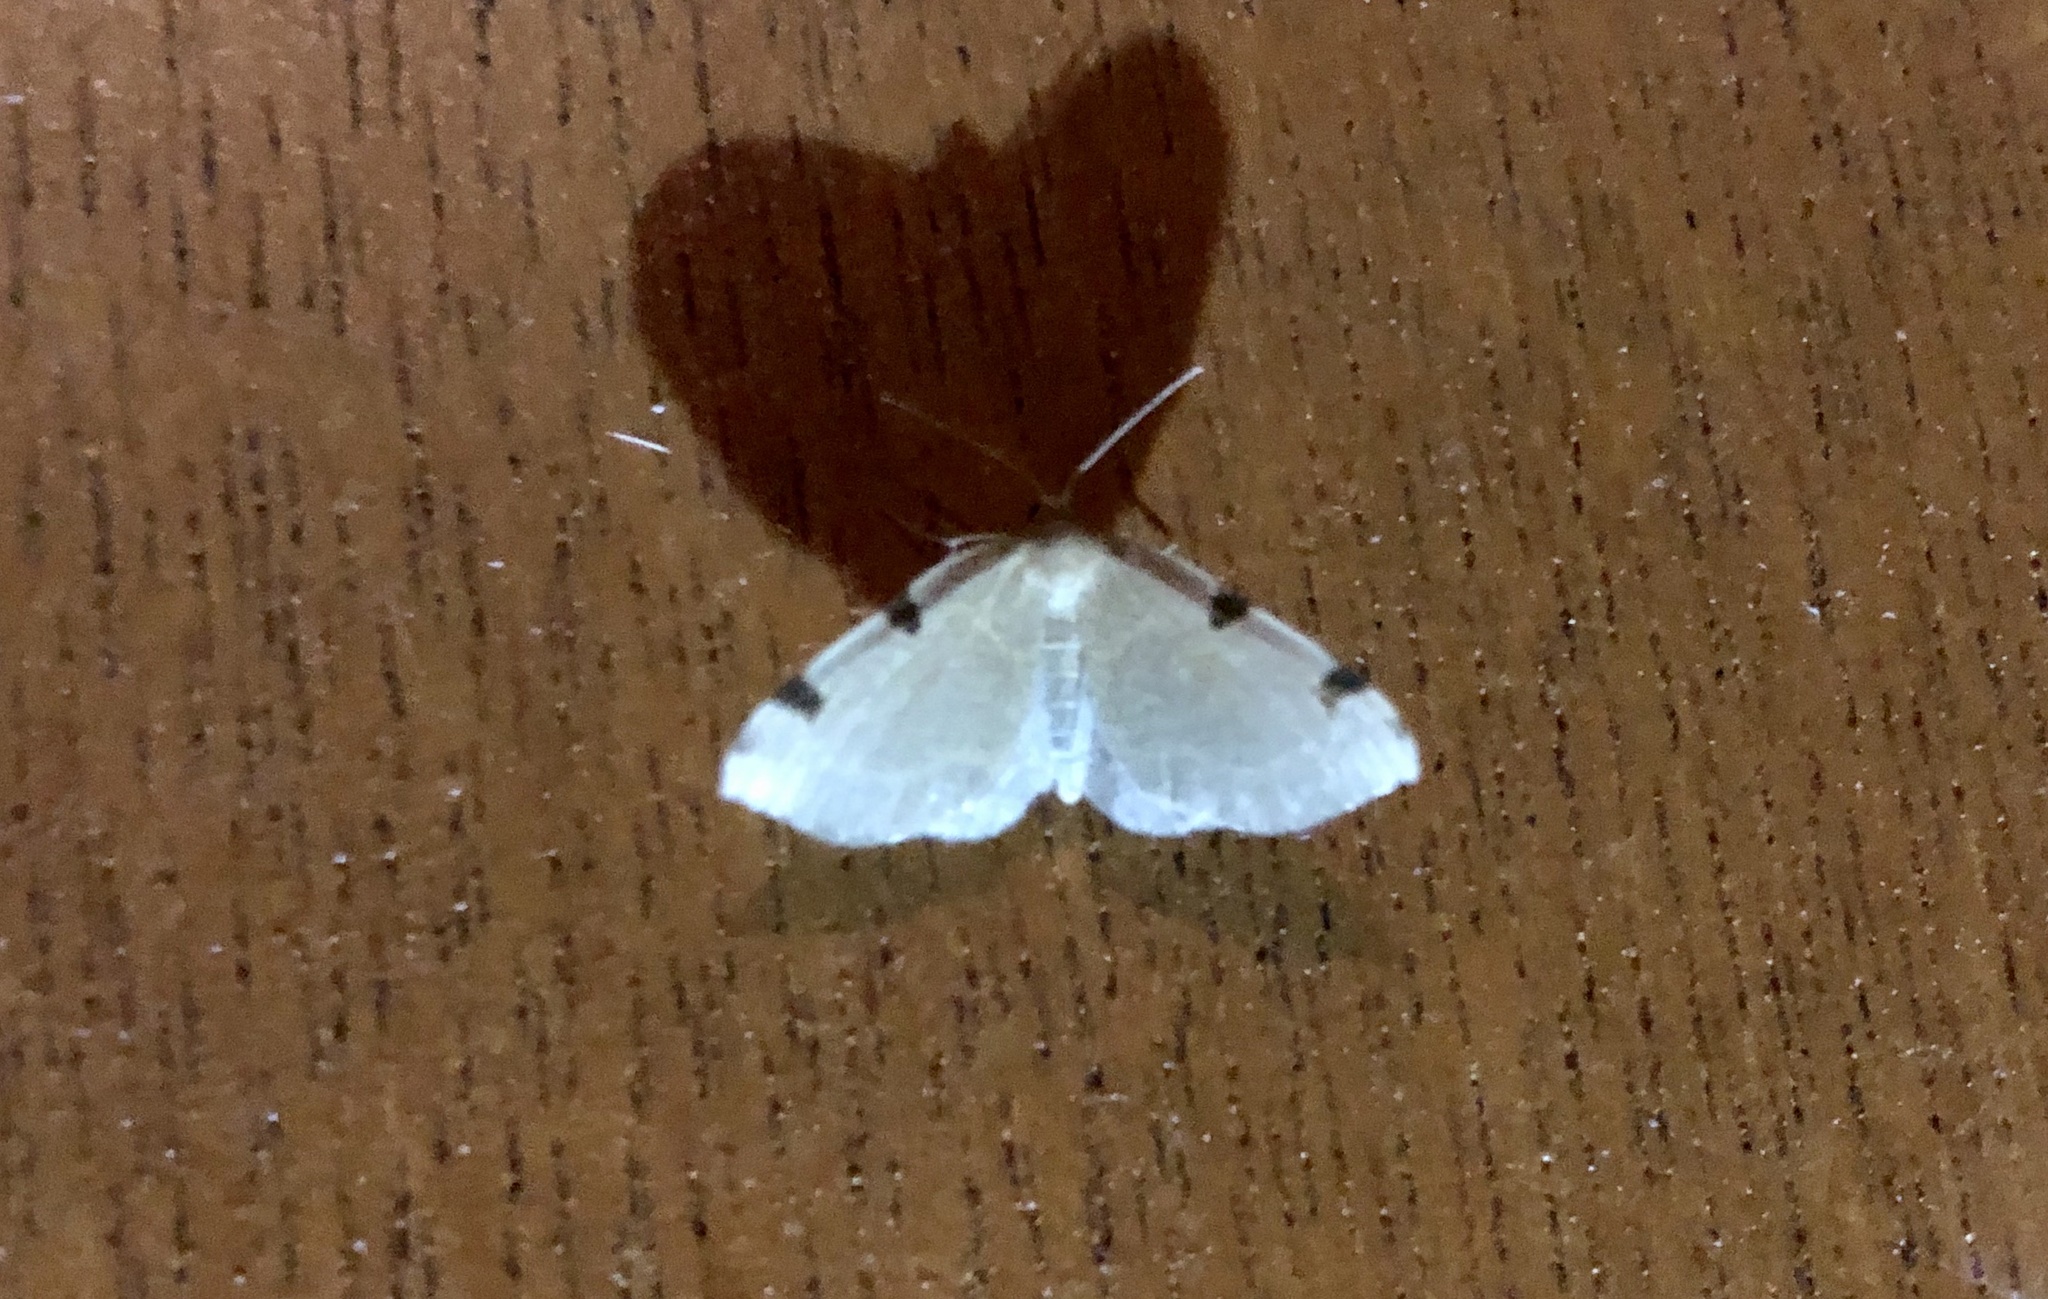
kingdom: Animalia
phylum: Arthropoda
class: Insecta
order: Lepidoptera
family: Geometridae
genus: Heterophleps
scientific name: Heterophleps triguttaria
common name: Three-spotted fillip
